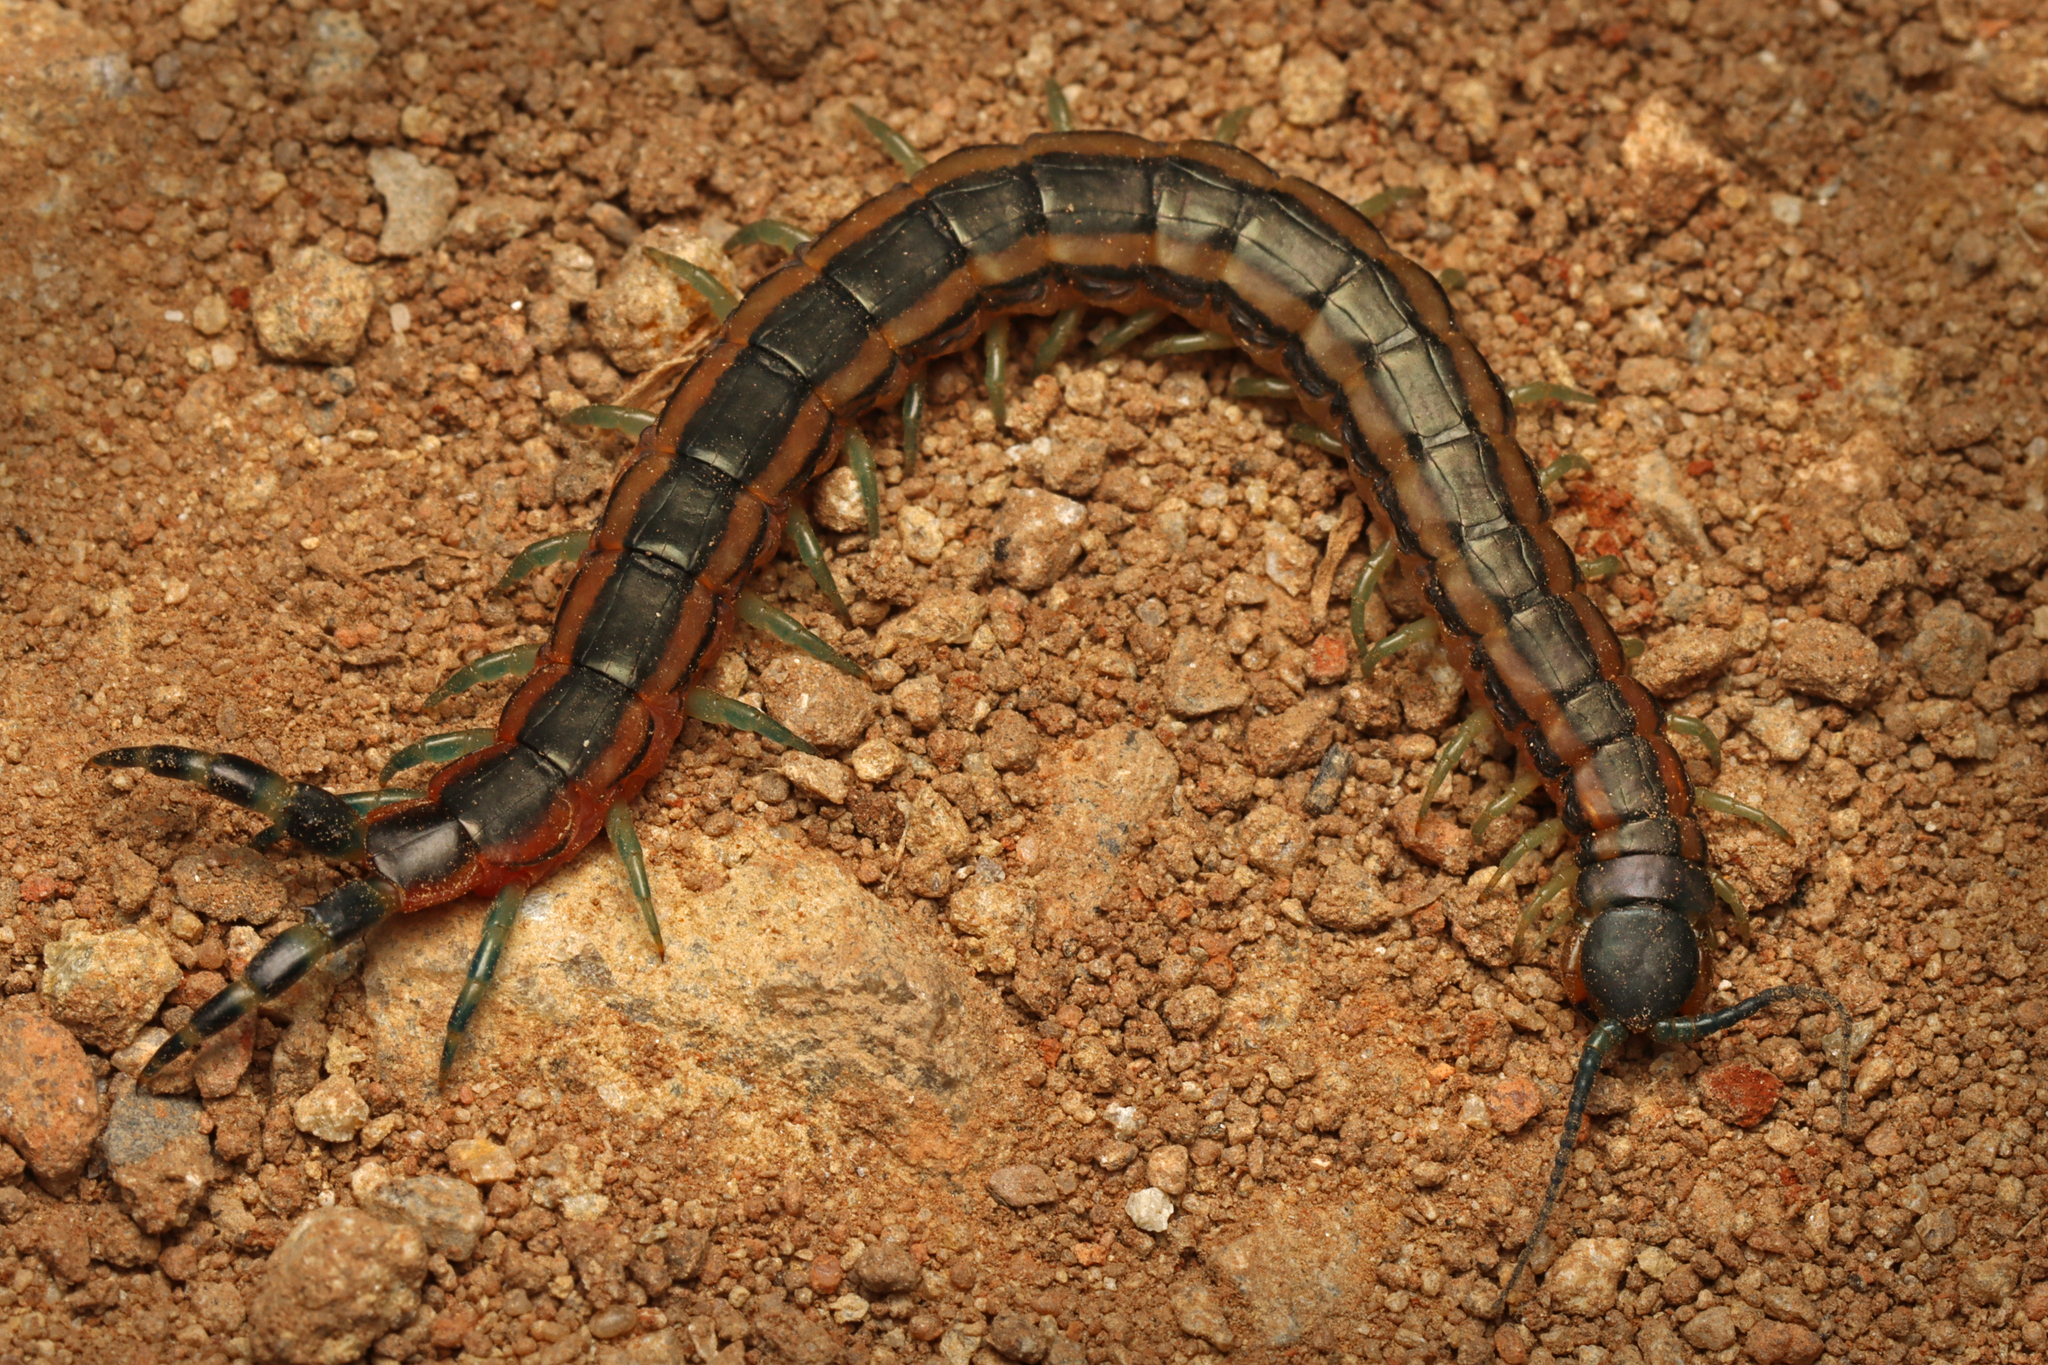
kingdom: Animalia
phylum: Arthropoda
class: Chilopoda
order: Scolopendromorpha
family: Scolopendridae
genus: Scolopendra
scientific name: Scolopendra laeta
